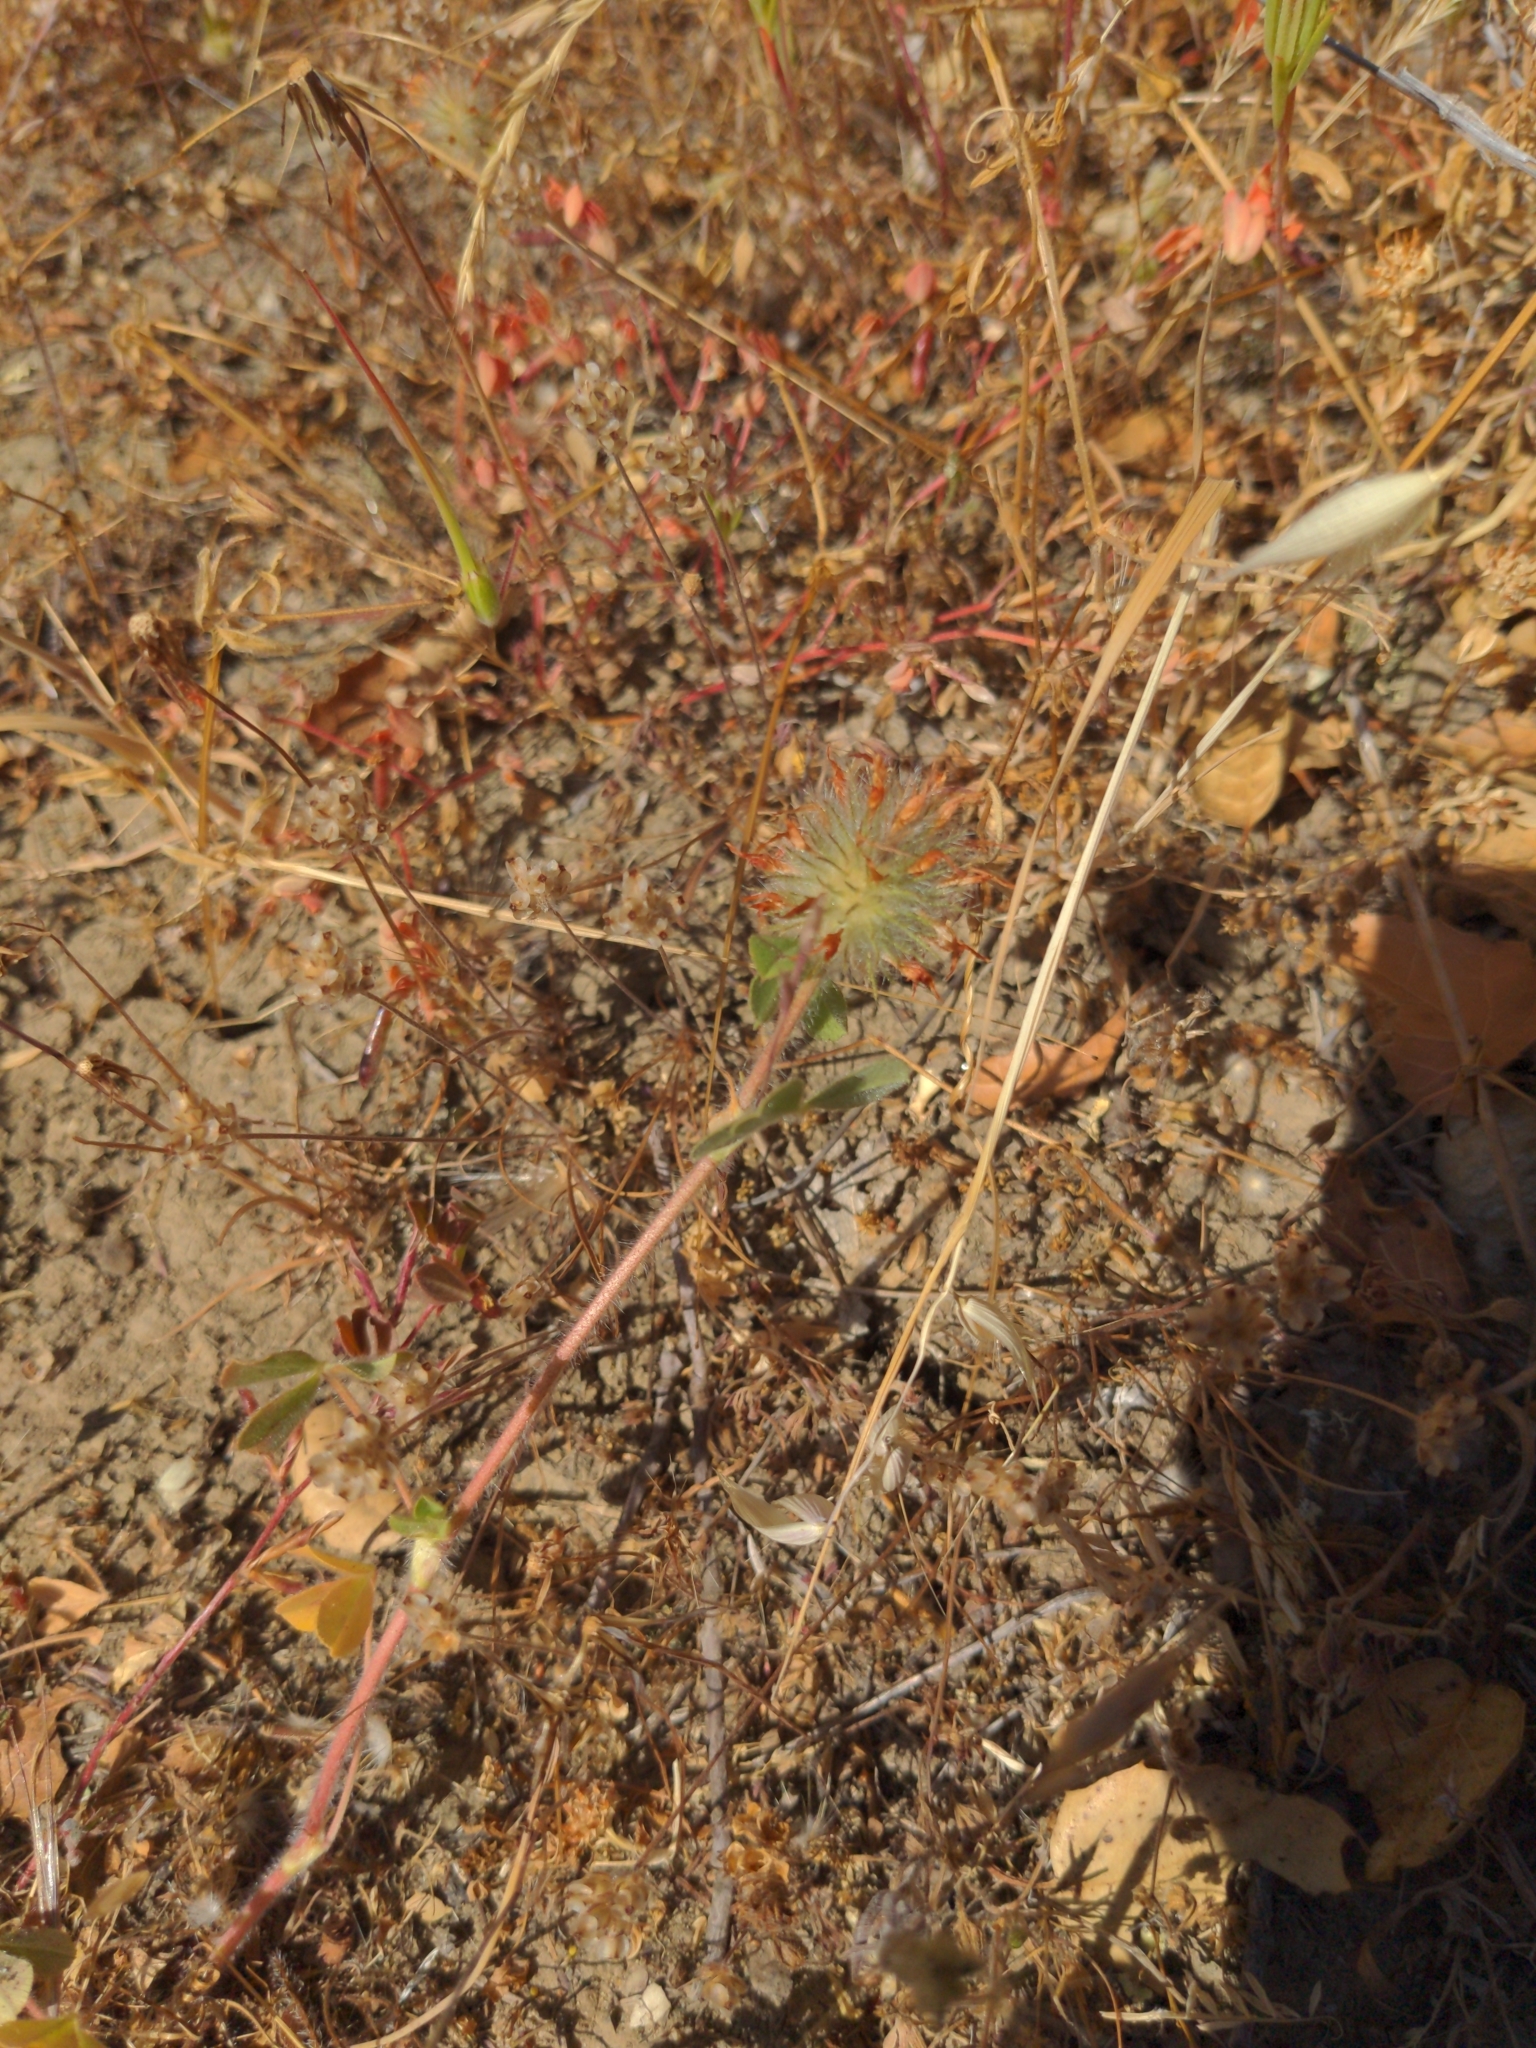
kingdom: Plantae
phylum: Tracheophyta
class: Magnoliopsida
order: Fabales
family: Fabaceae
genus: Trifolium
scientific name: Trifolium hirtum
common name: Rose clover
